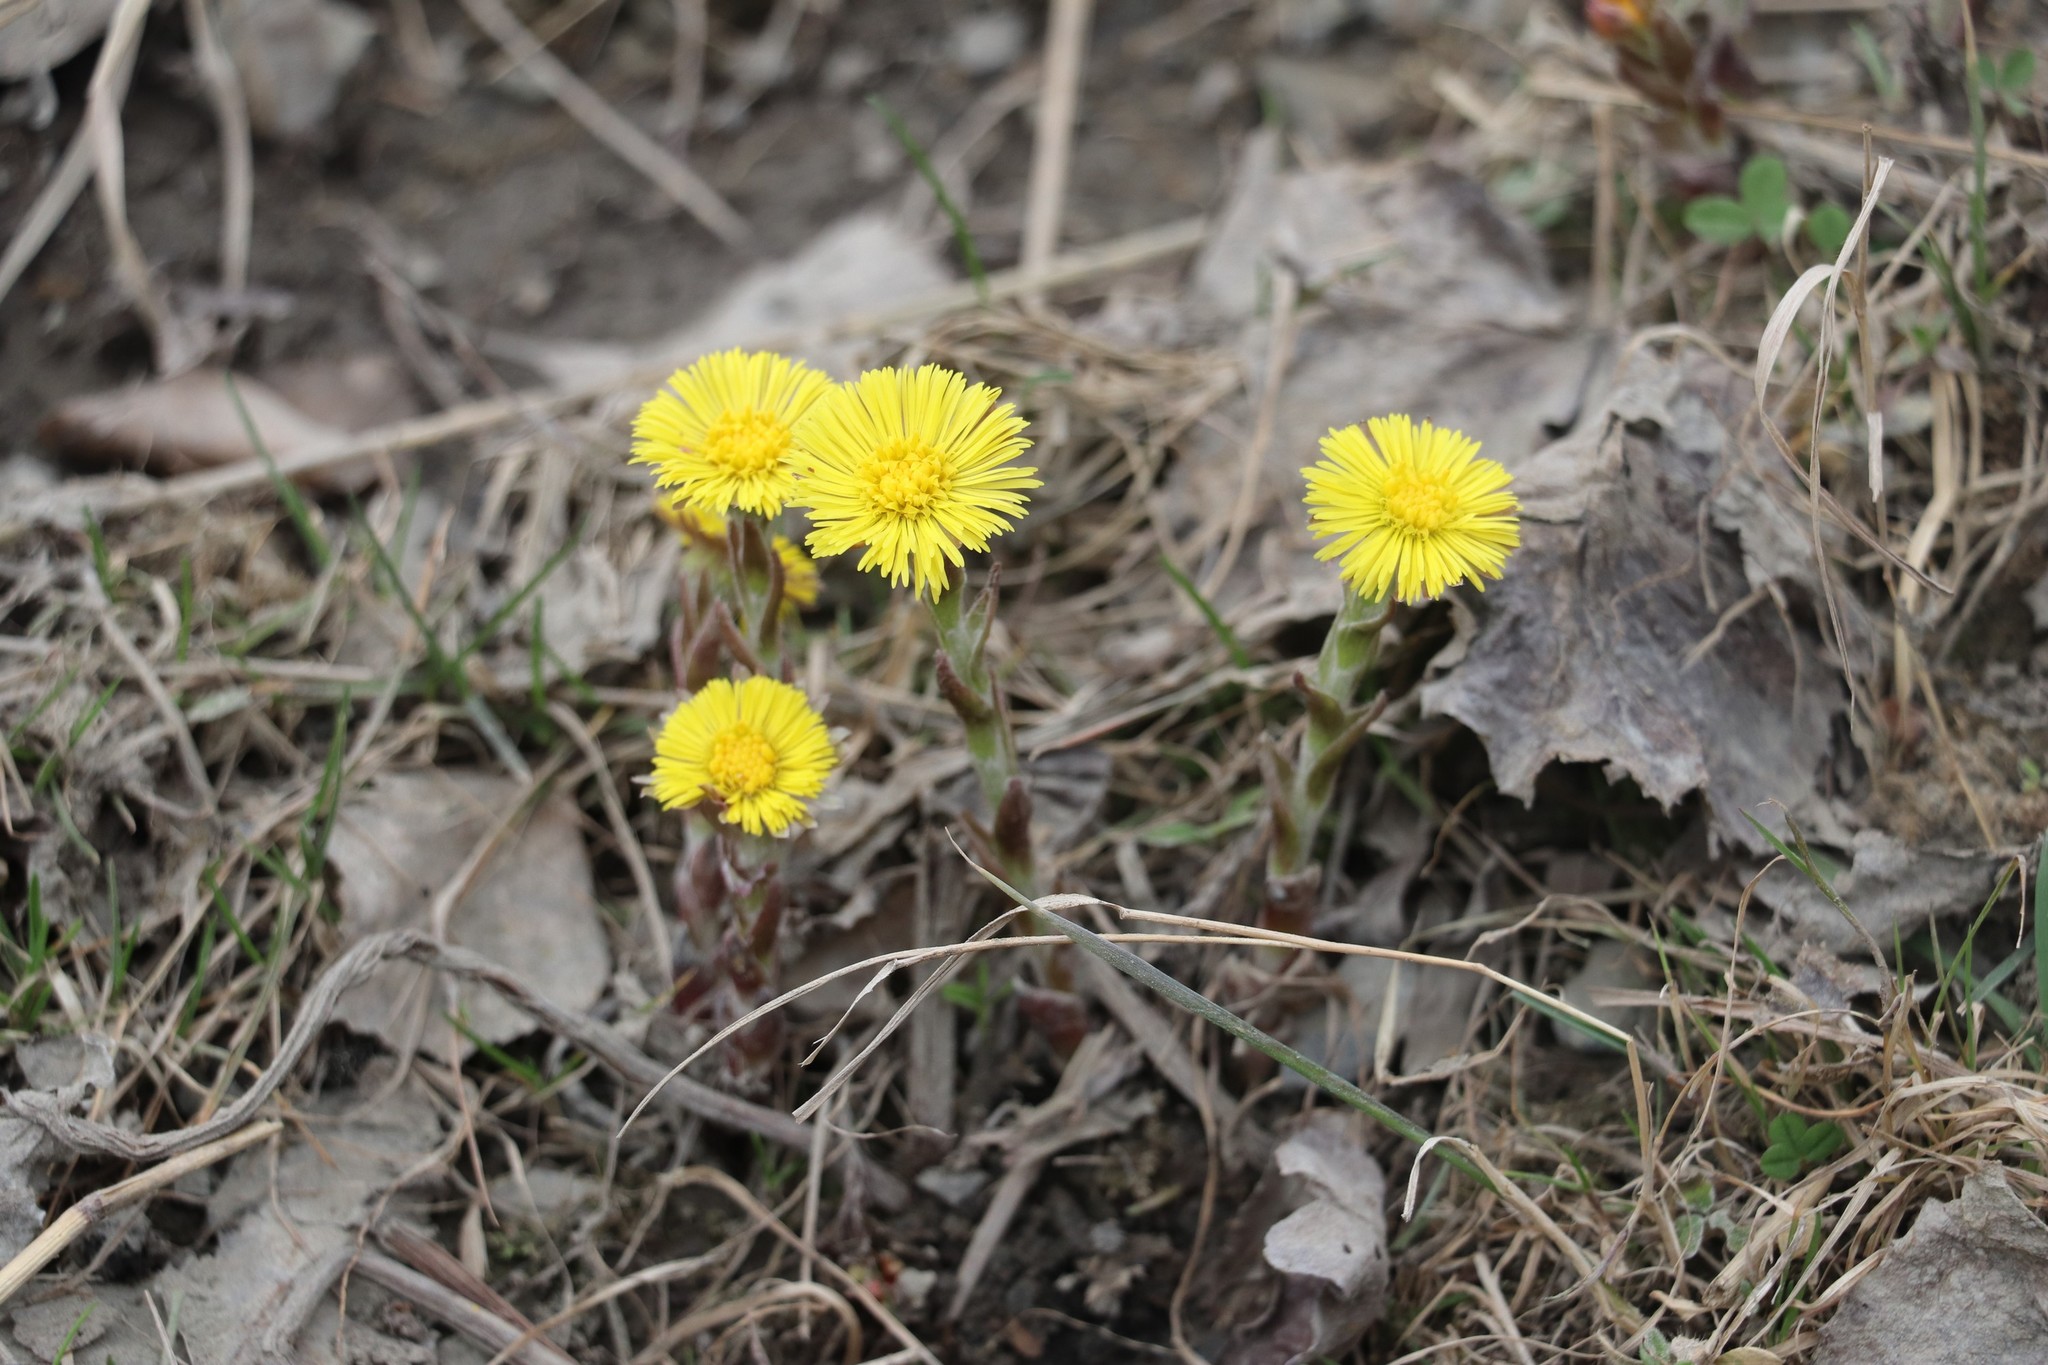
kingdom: Plantae
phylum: Tracheophyta
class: Magnoliopsida
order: Asterales
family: Asteraceae
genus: Tussilago
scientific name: Tussilago farfara
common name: Coltsfoot
